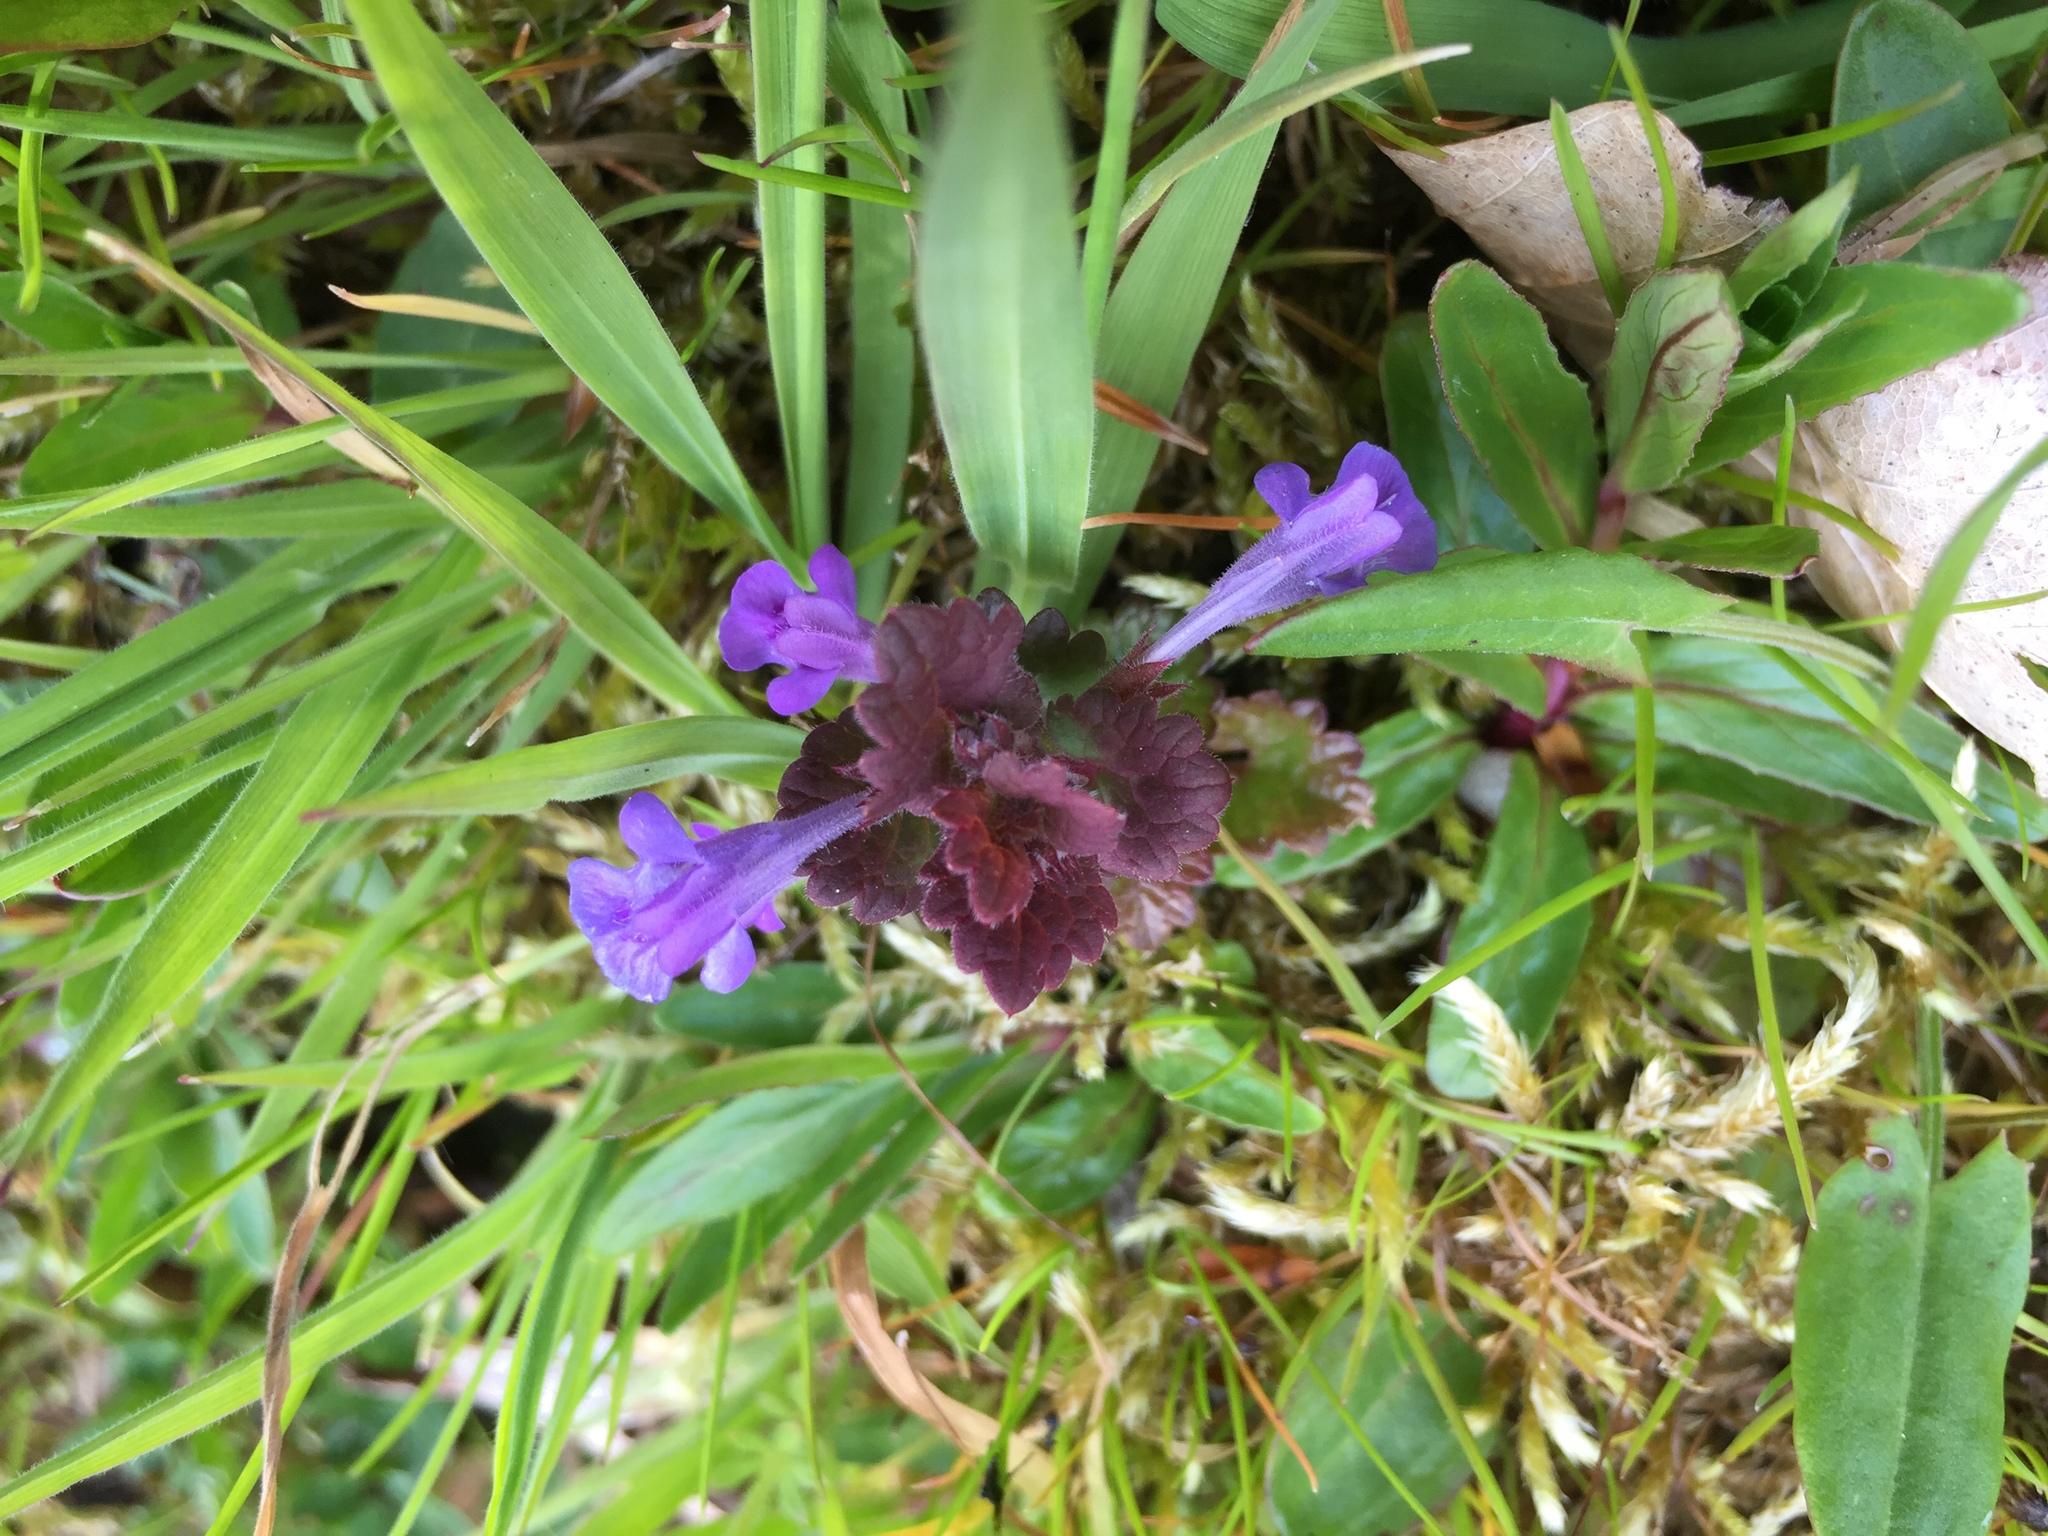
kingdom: Plantae
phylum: Tracheophyta
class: Magnoliopsida
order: Lamiales
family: Lamiaceae
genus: Glechoma
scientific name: Glechoma hederacea
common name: Ground ivy
